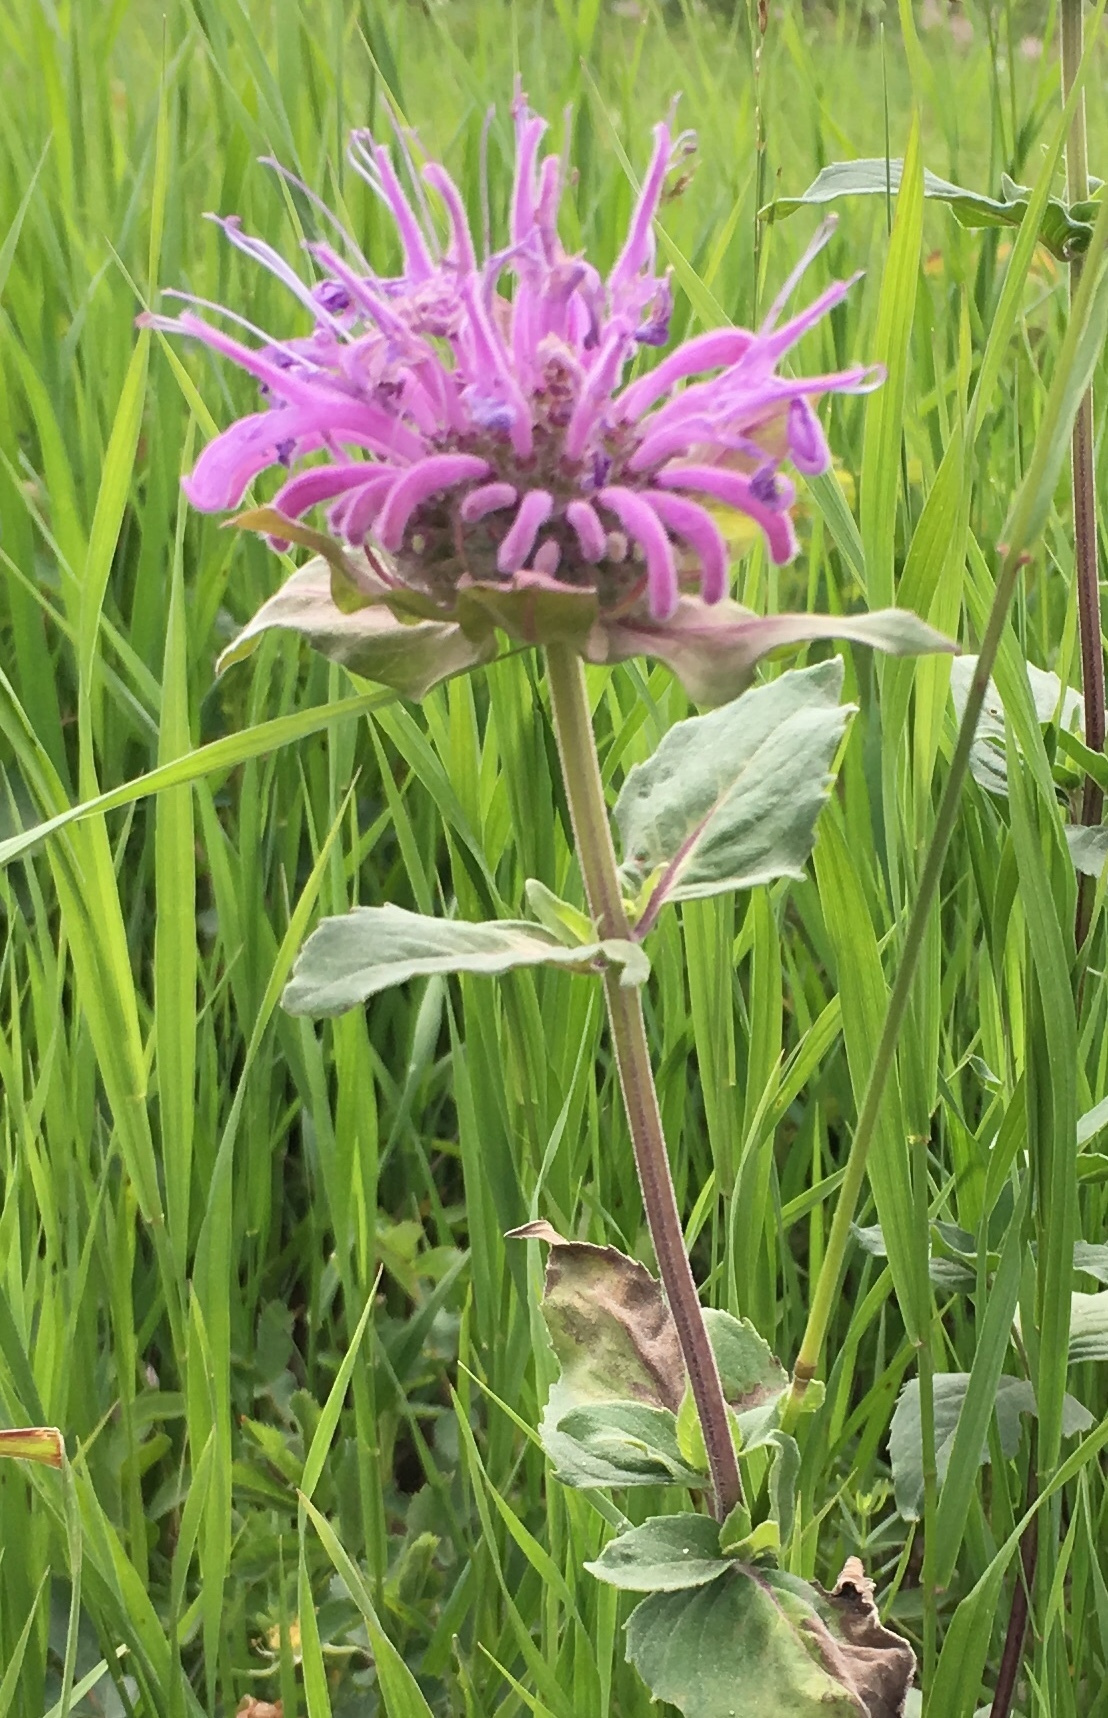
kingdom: Plantae
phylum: Tracheophyta
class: Magnoliopsida
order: Lamiales
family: Lamiaceae
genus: Monarda
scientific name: Monarda fistulosa
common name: Purple beebalm
